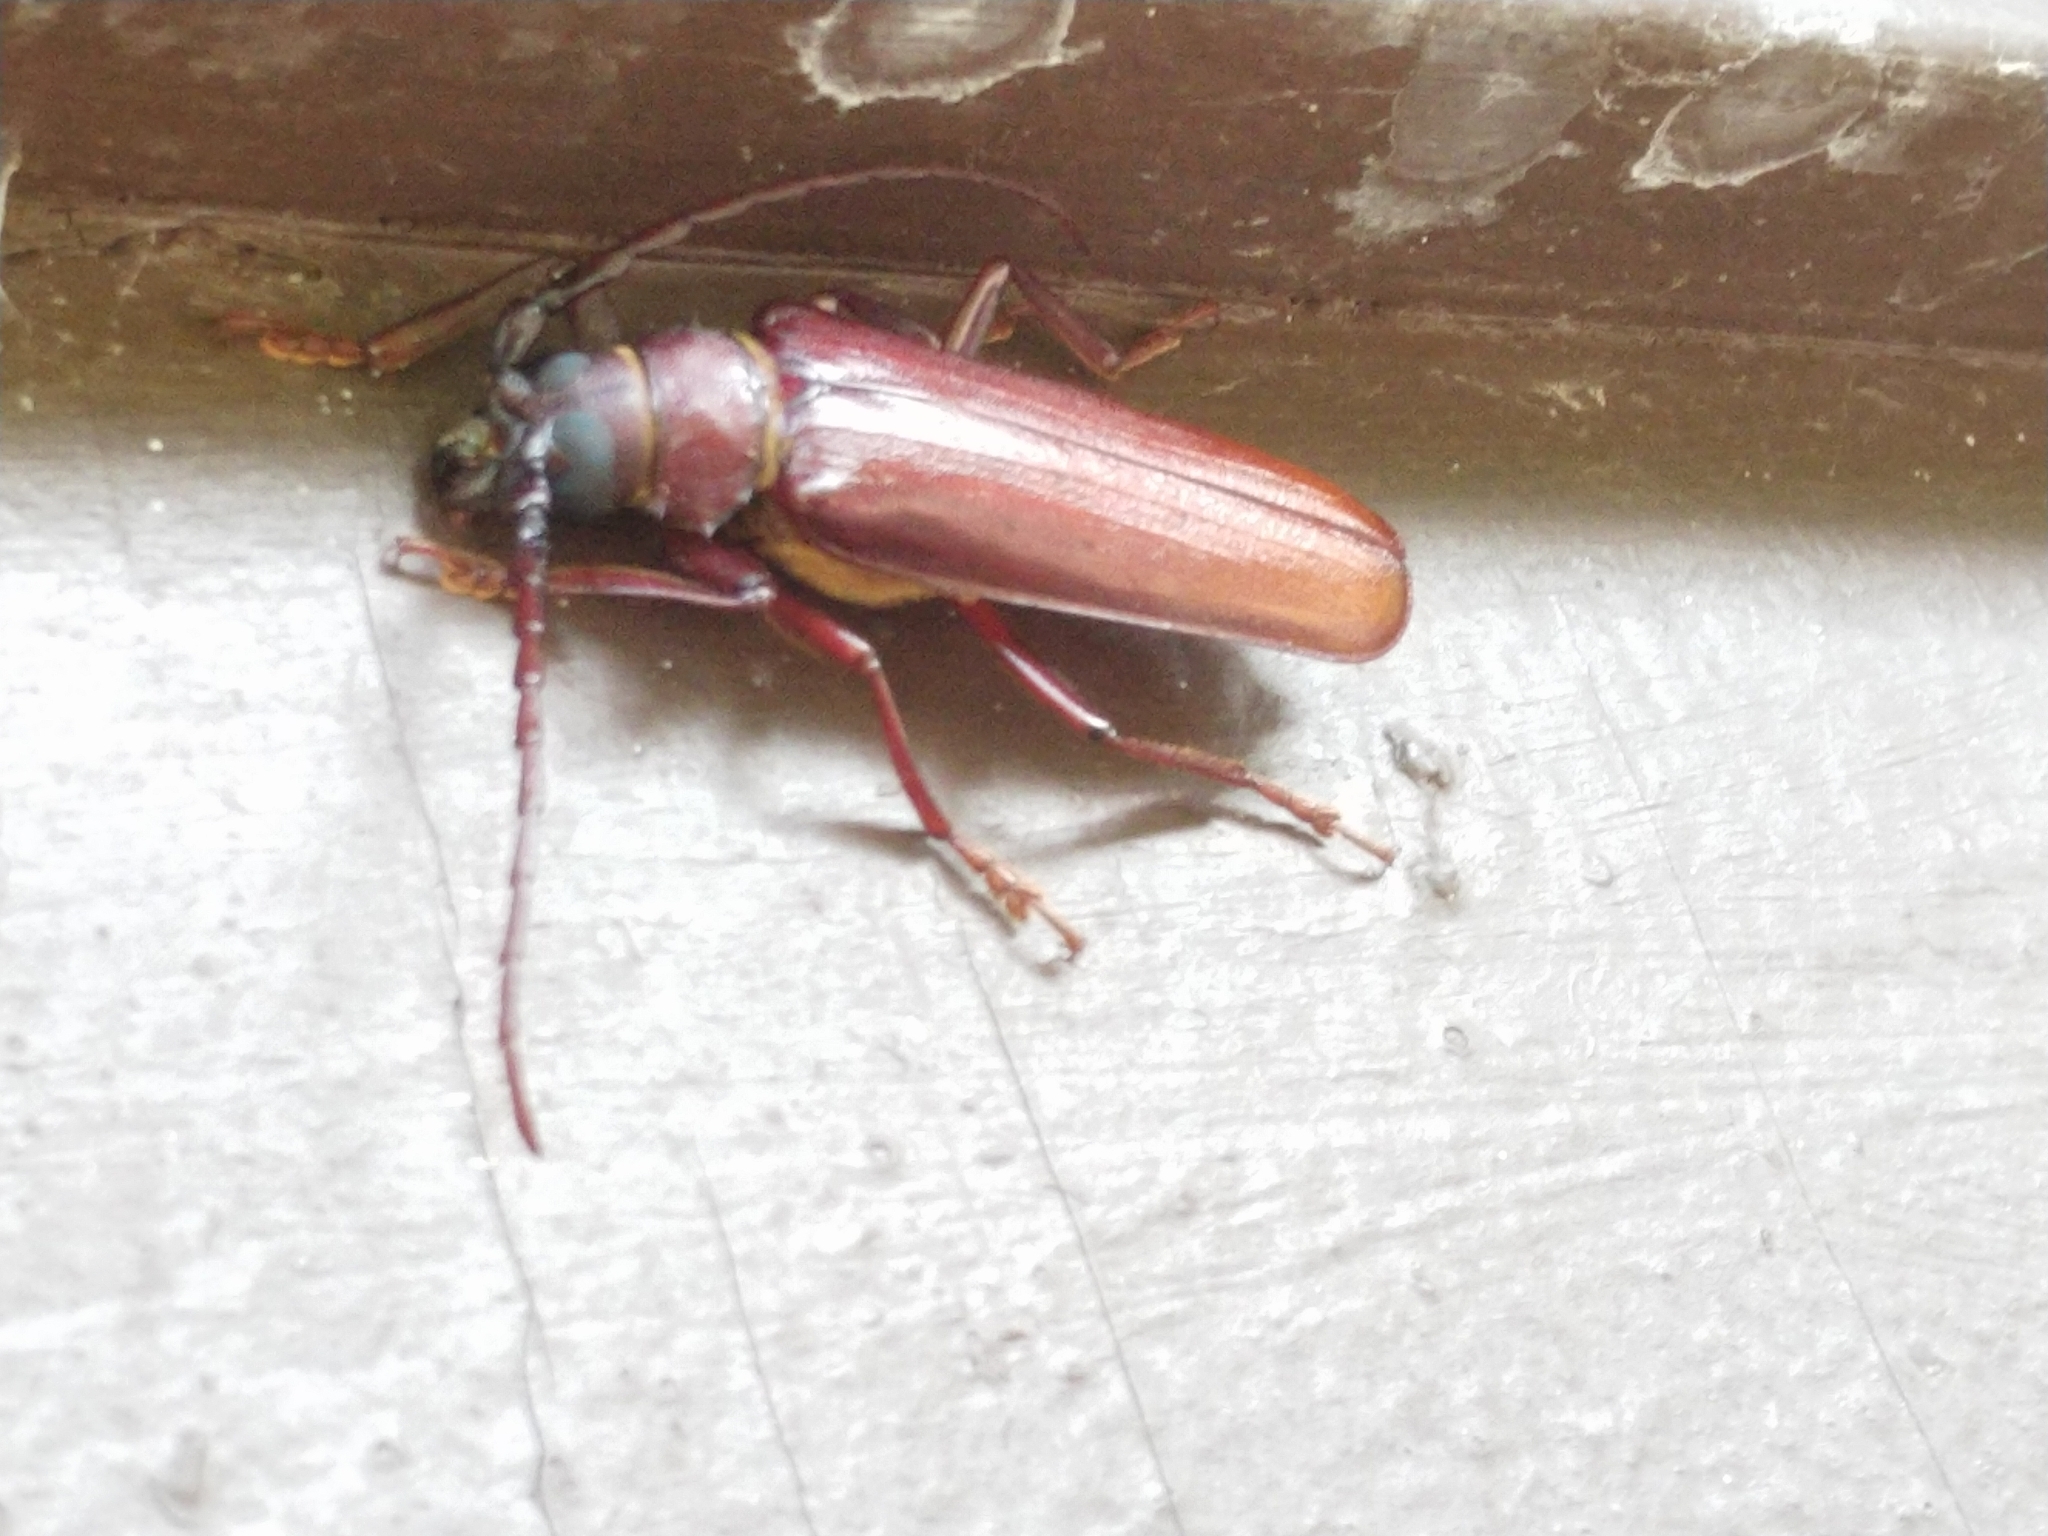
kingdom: Animalia
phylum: Arthropoda
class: Insecta
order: Coleoptera
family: Cerambycidae
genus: Orthosoma
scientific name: Orthosoma brunneum
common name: Brown prionid beetle
